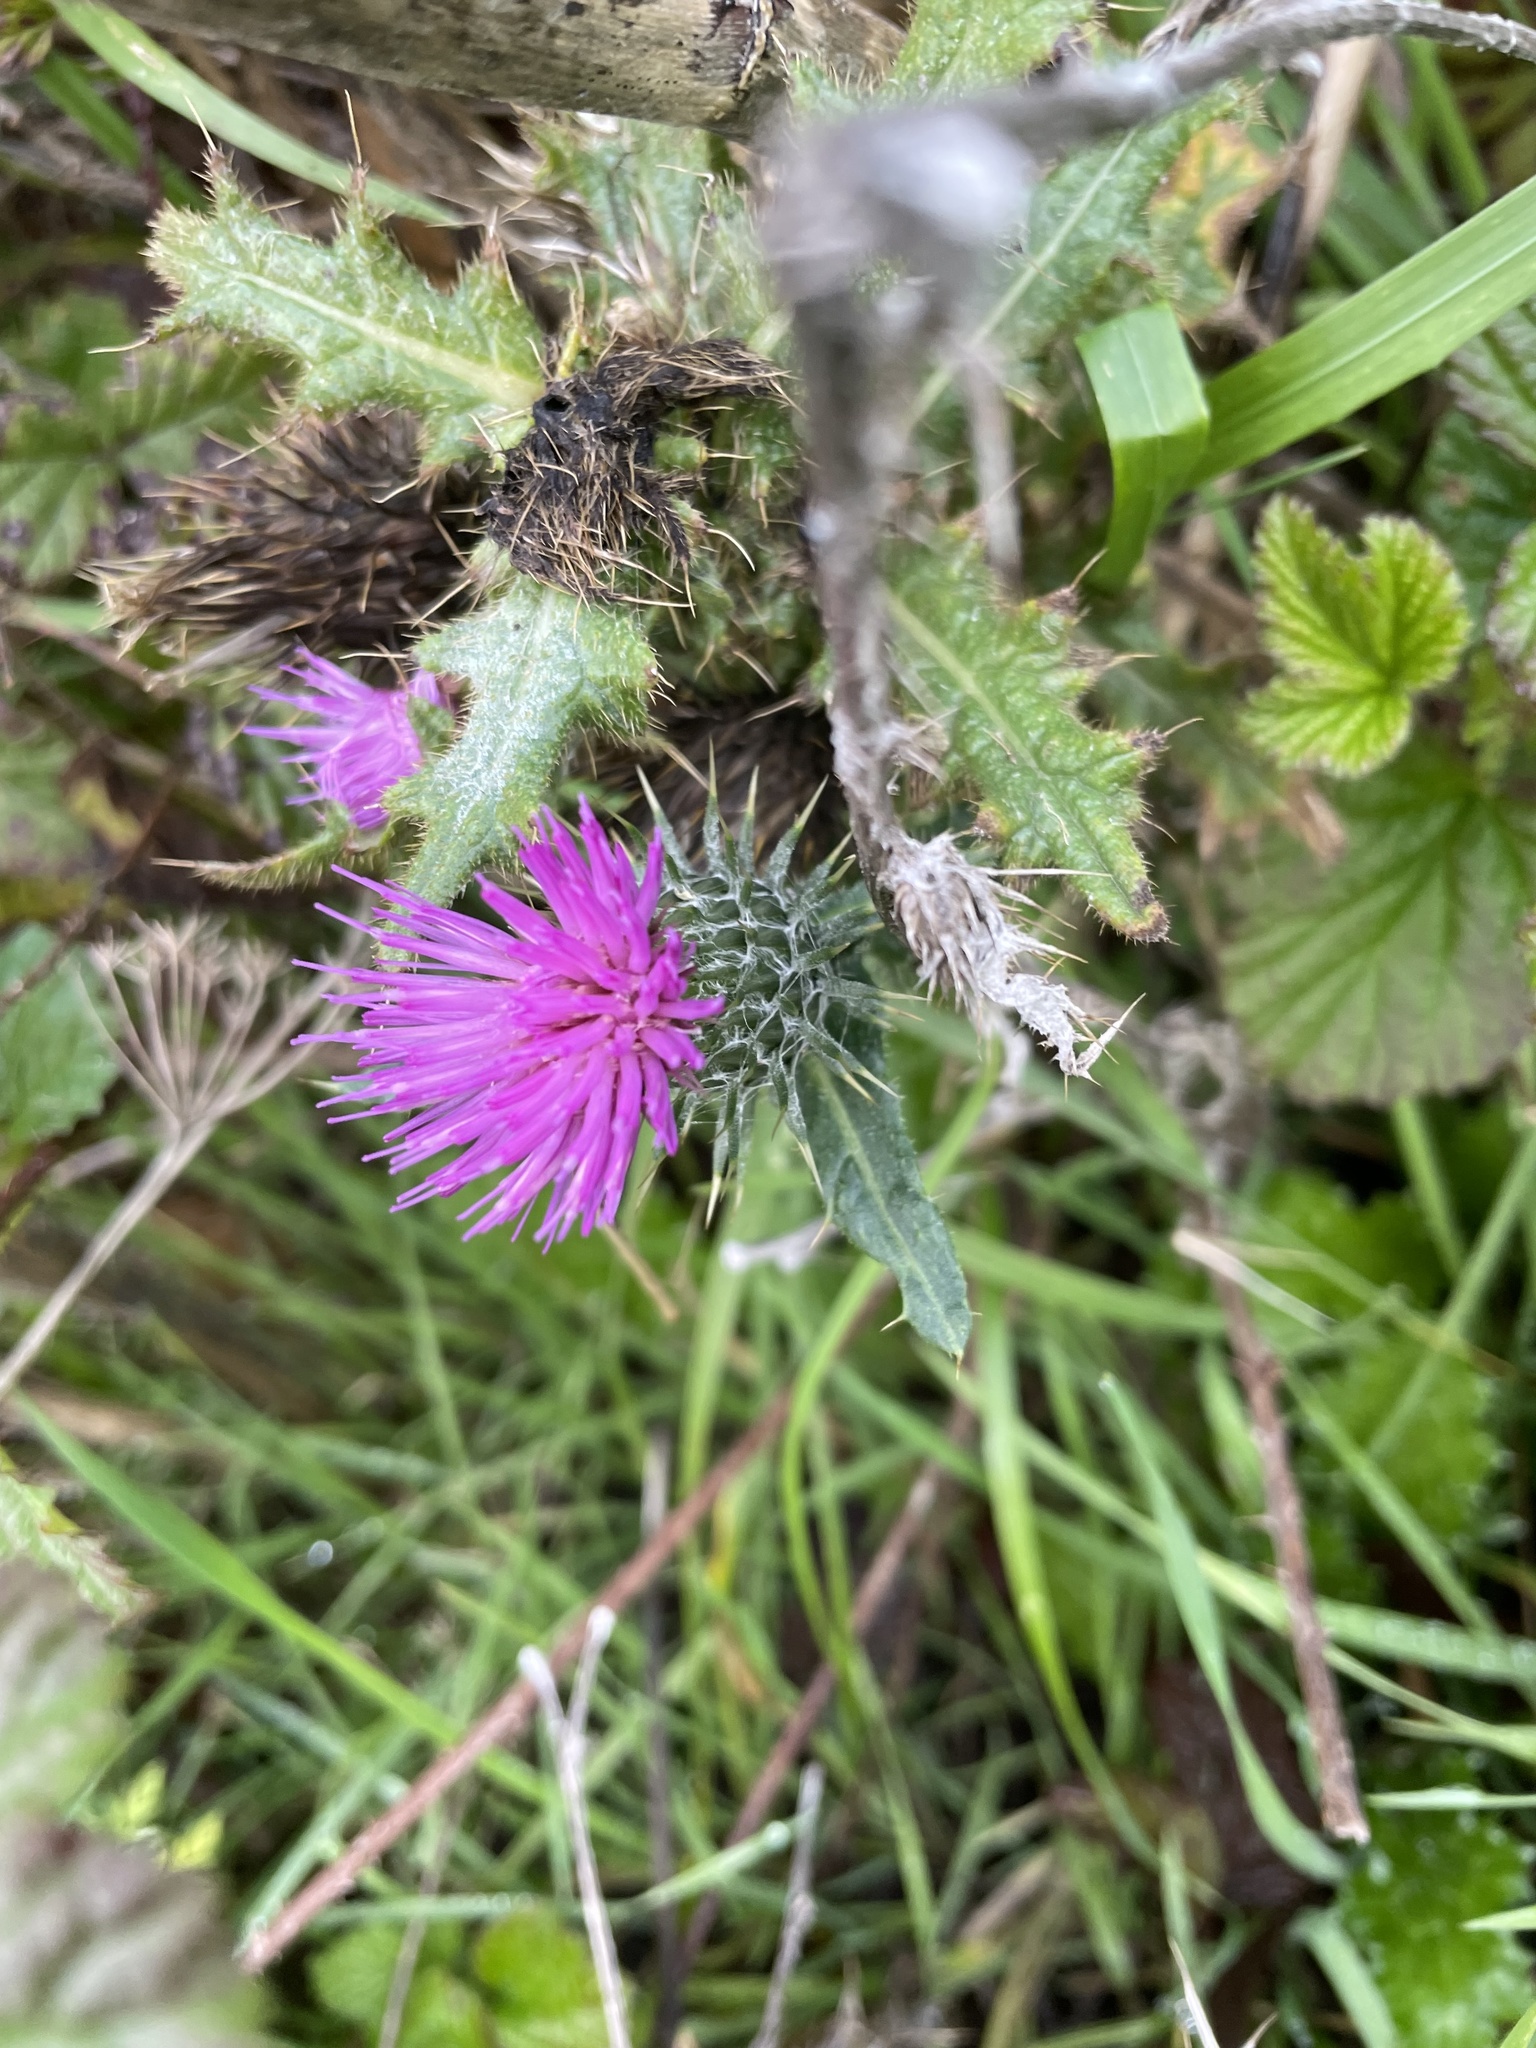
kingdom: Plantae
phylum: Tracheophyta
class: Magnoliopsida
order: Asterales
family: Asteraceae
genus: Cirsium
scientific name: Cirsium vulgare
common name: Bull thistle
